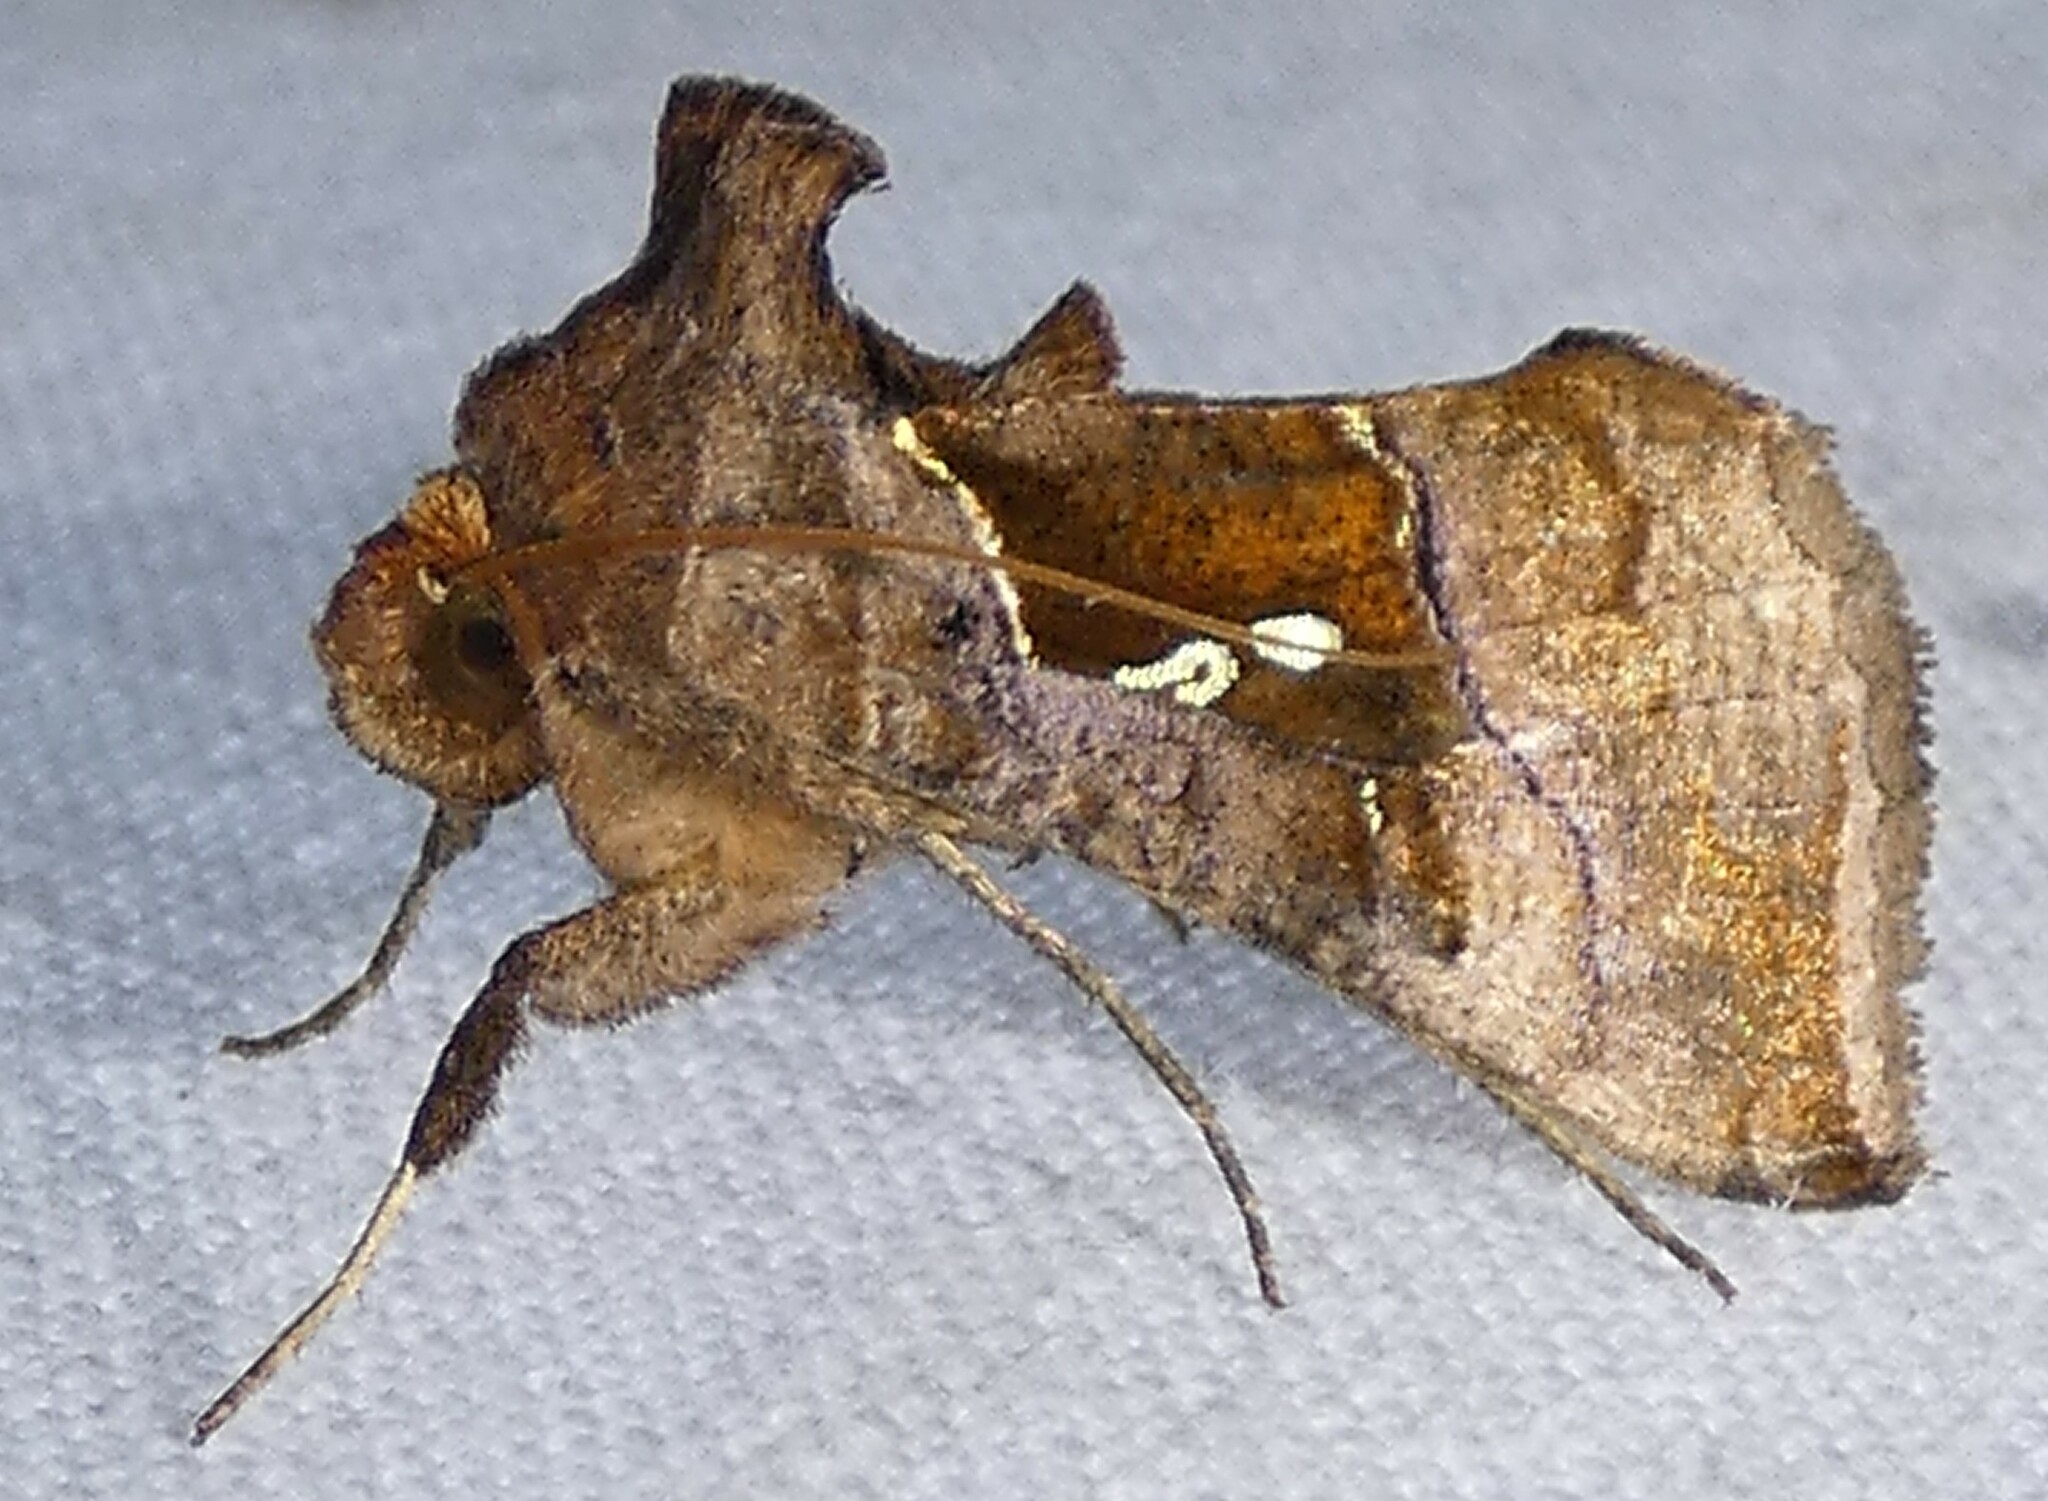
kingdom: Animalia
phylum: Arthropoda
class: Insecta
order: Lepidoptera
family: Noctuidae
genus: Enigmogramma
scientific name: Enigmogramma basigera
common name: Pink-washed looper moth
